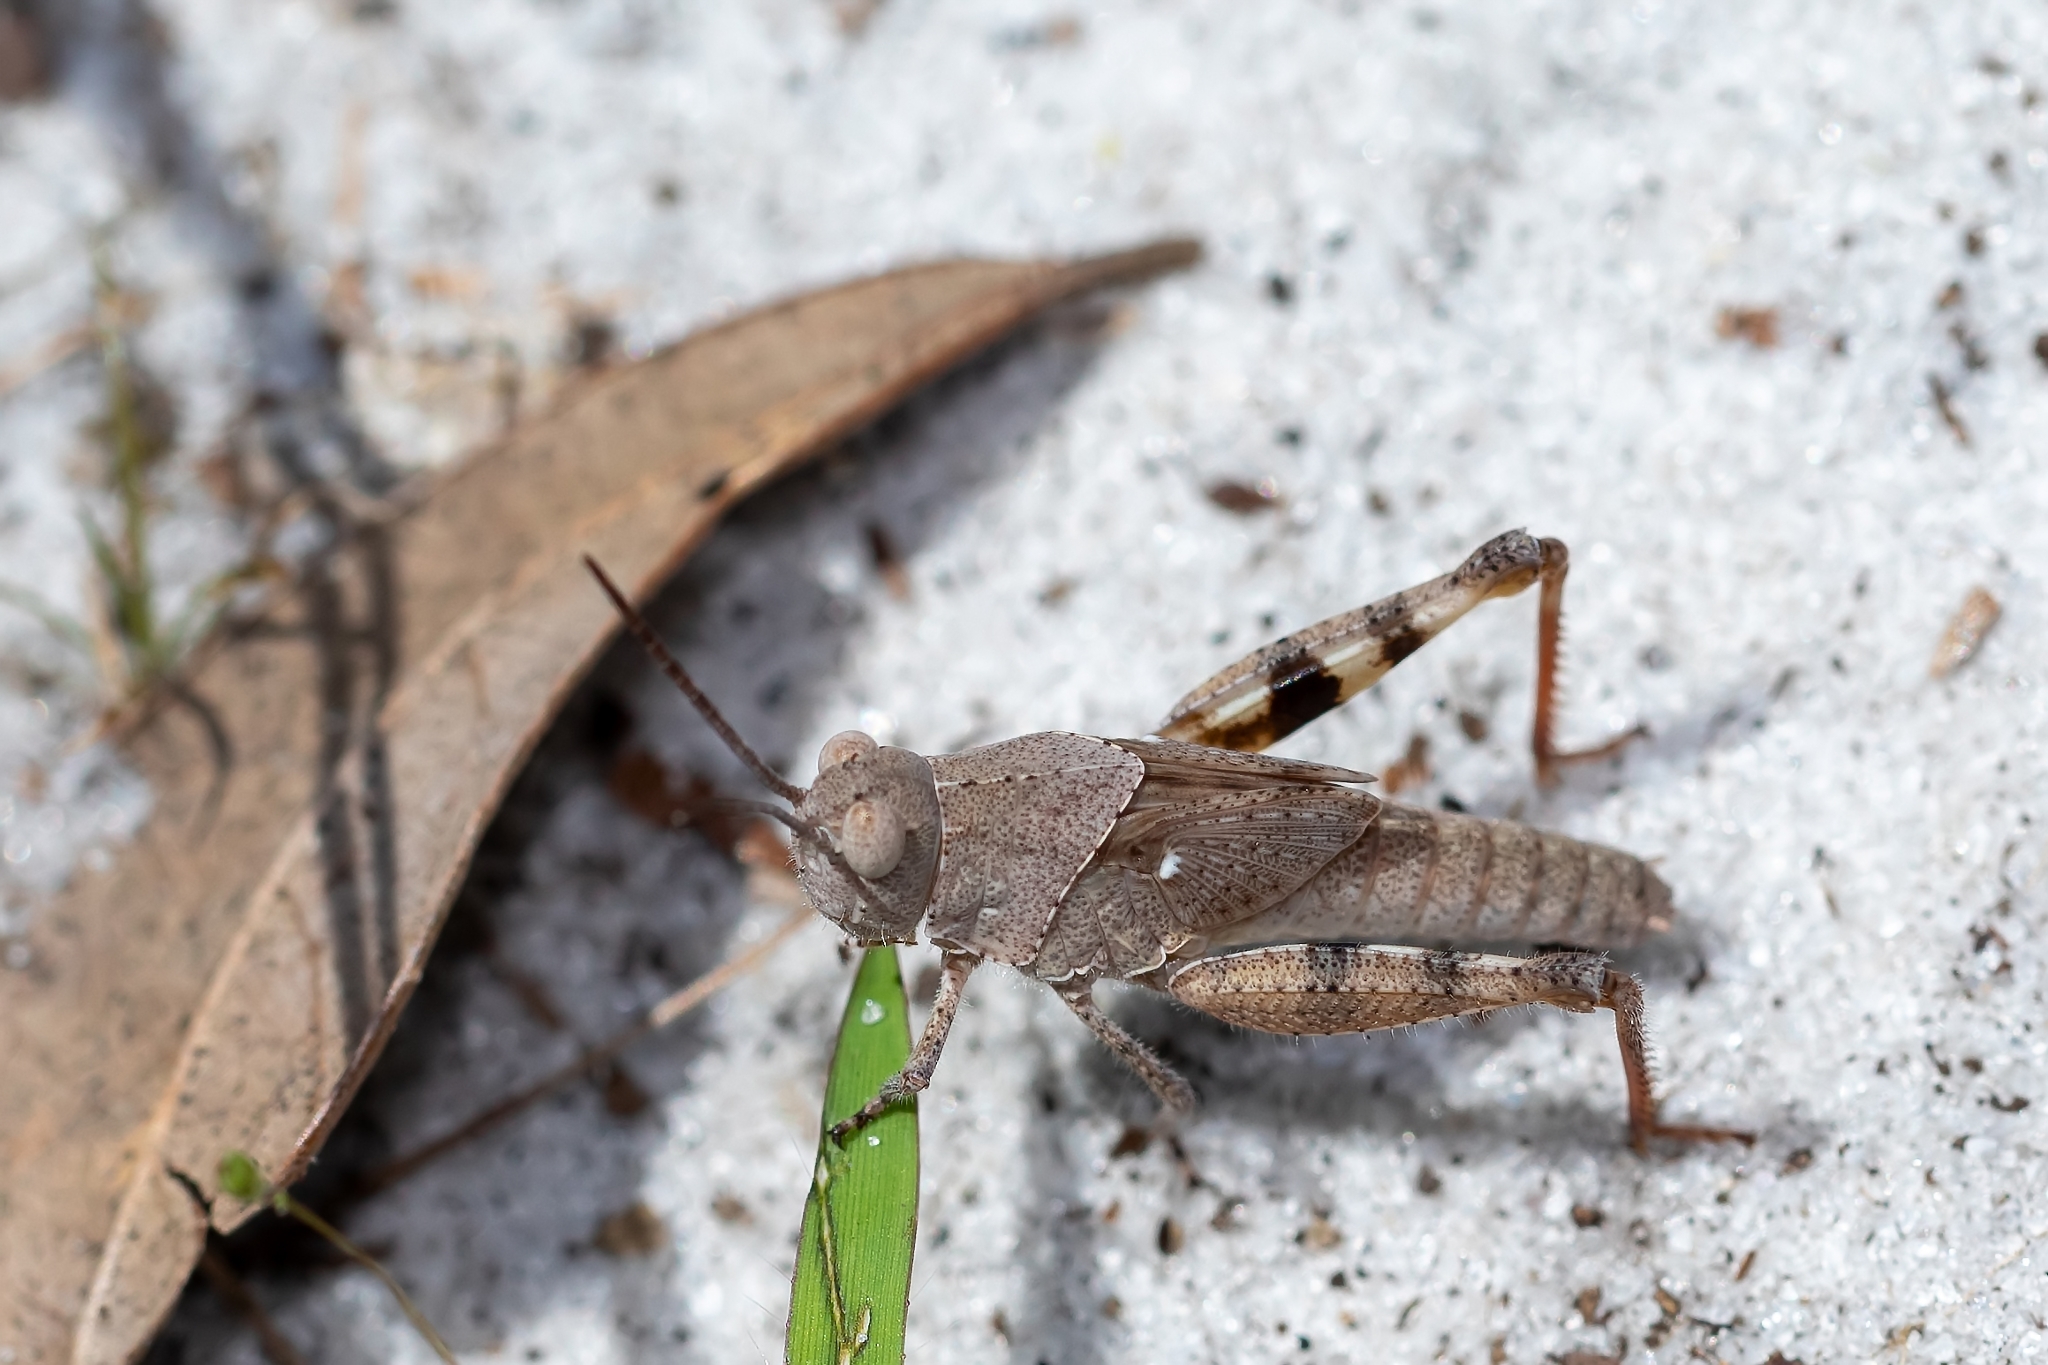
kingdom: Animalia
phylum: Arthropoda
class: Insecta
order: Orthoptera
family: Acrididae
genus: Spharagemon
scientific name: Spharagemon marmoratum
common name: Marbled grasshopper
